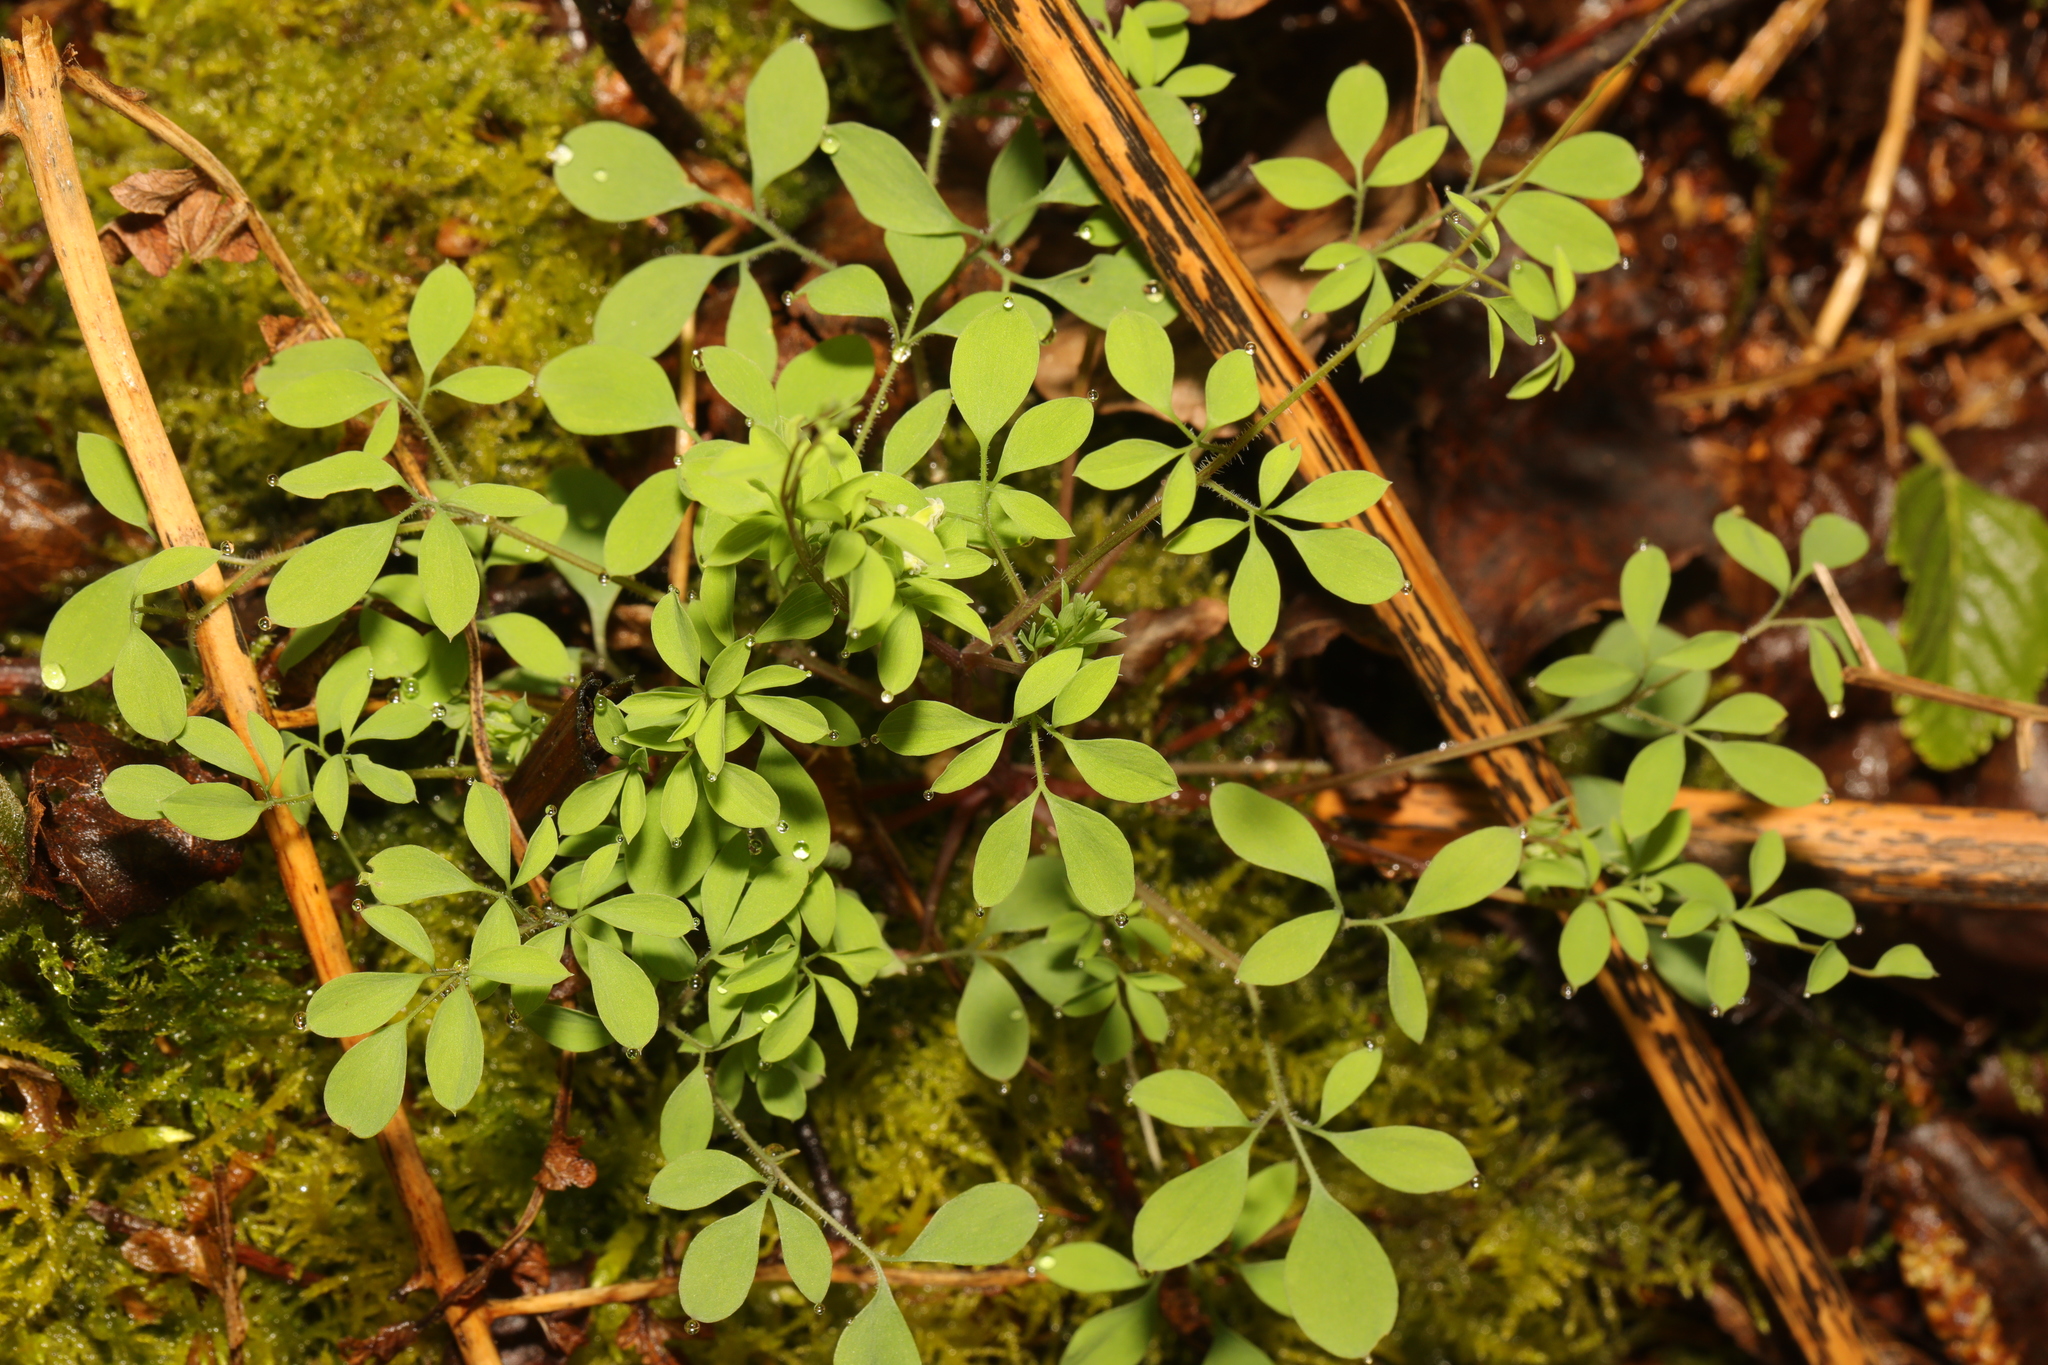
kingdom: Plantae
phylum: Tracheophyta
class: Magnoliopsida
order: Ranunculales
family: Papaveraceae
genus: Ceratocapnos
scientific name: Ceratocapnos claviculata
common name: Climbing corydalis
